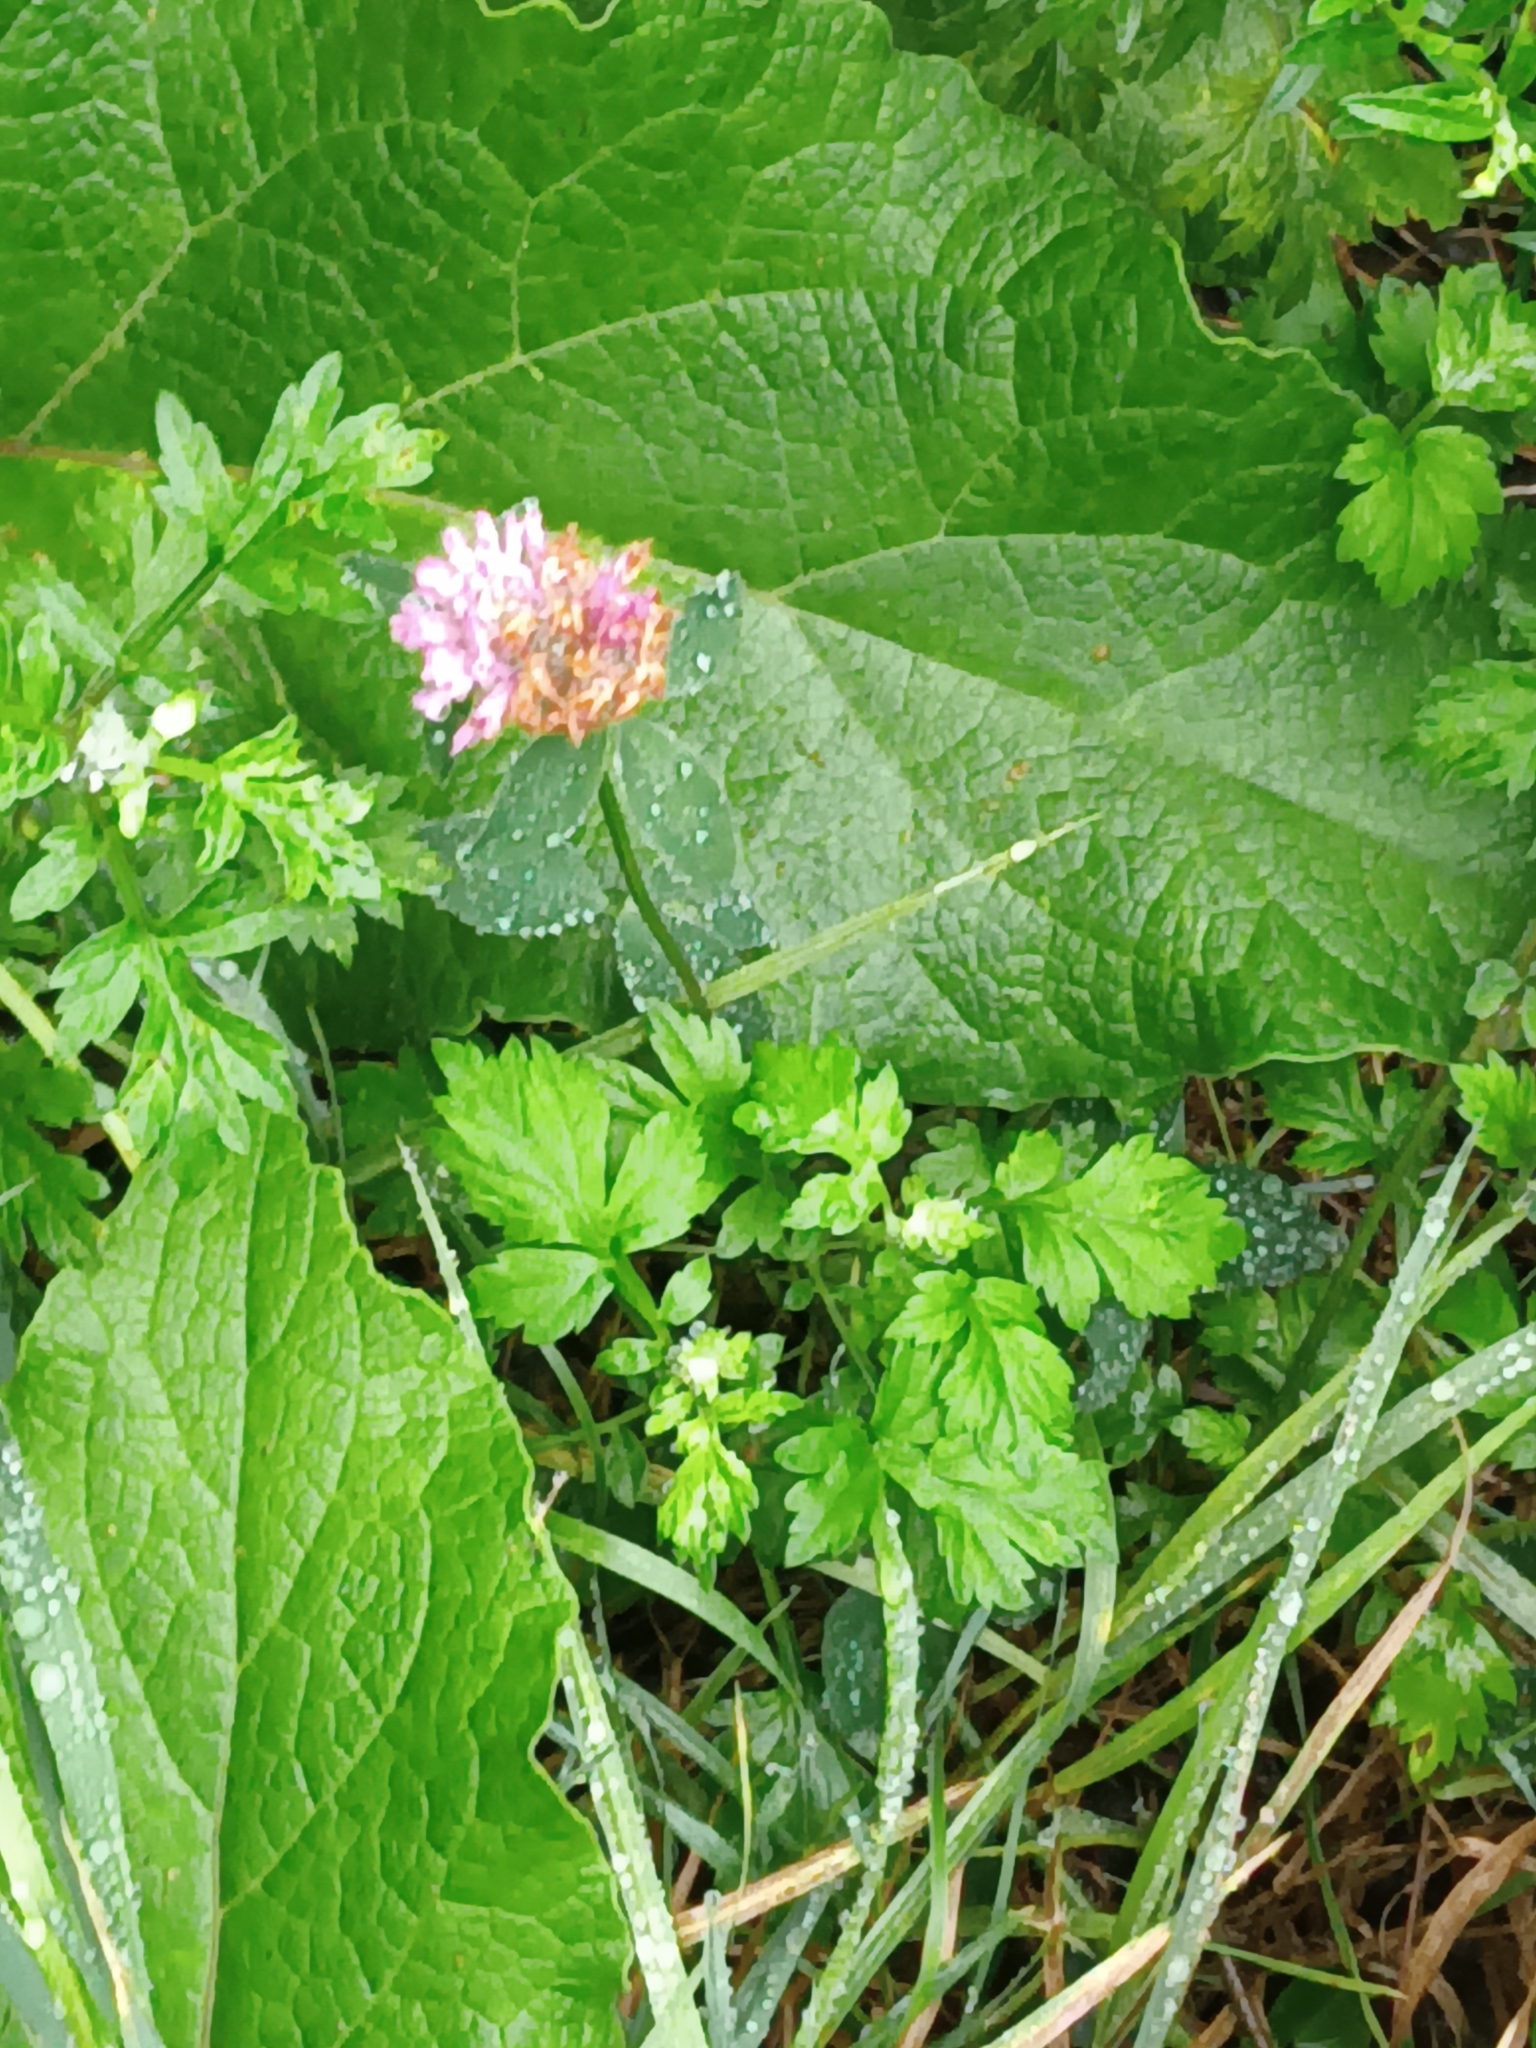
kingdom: Plantae
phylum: Tracheophyta
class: Magnoliopsida
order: Fabales
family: Fabaceae
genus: Trifolium
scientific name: Trifolium pratense
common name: Red clover
